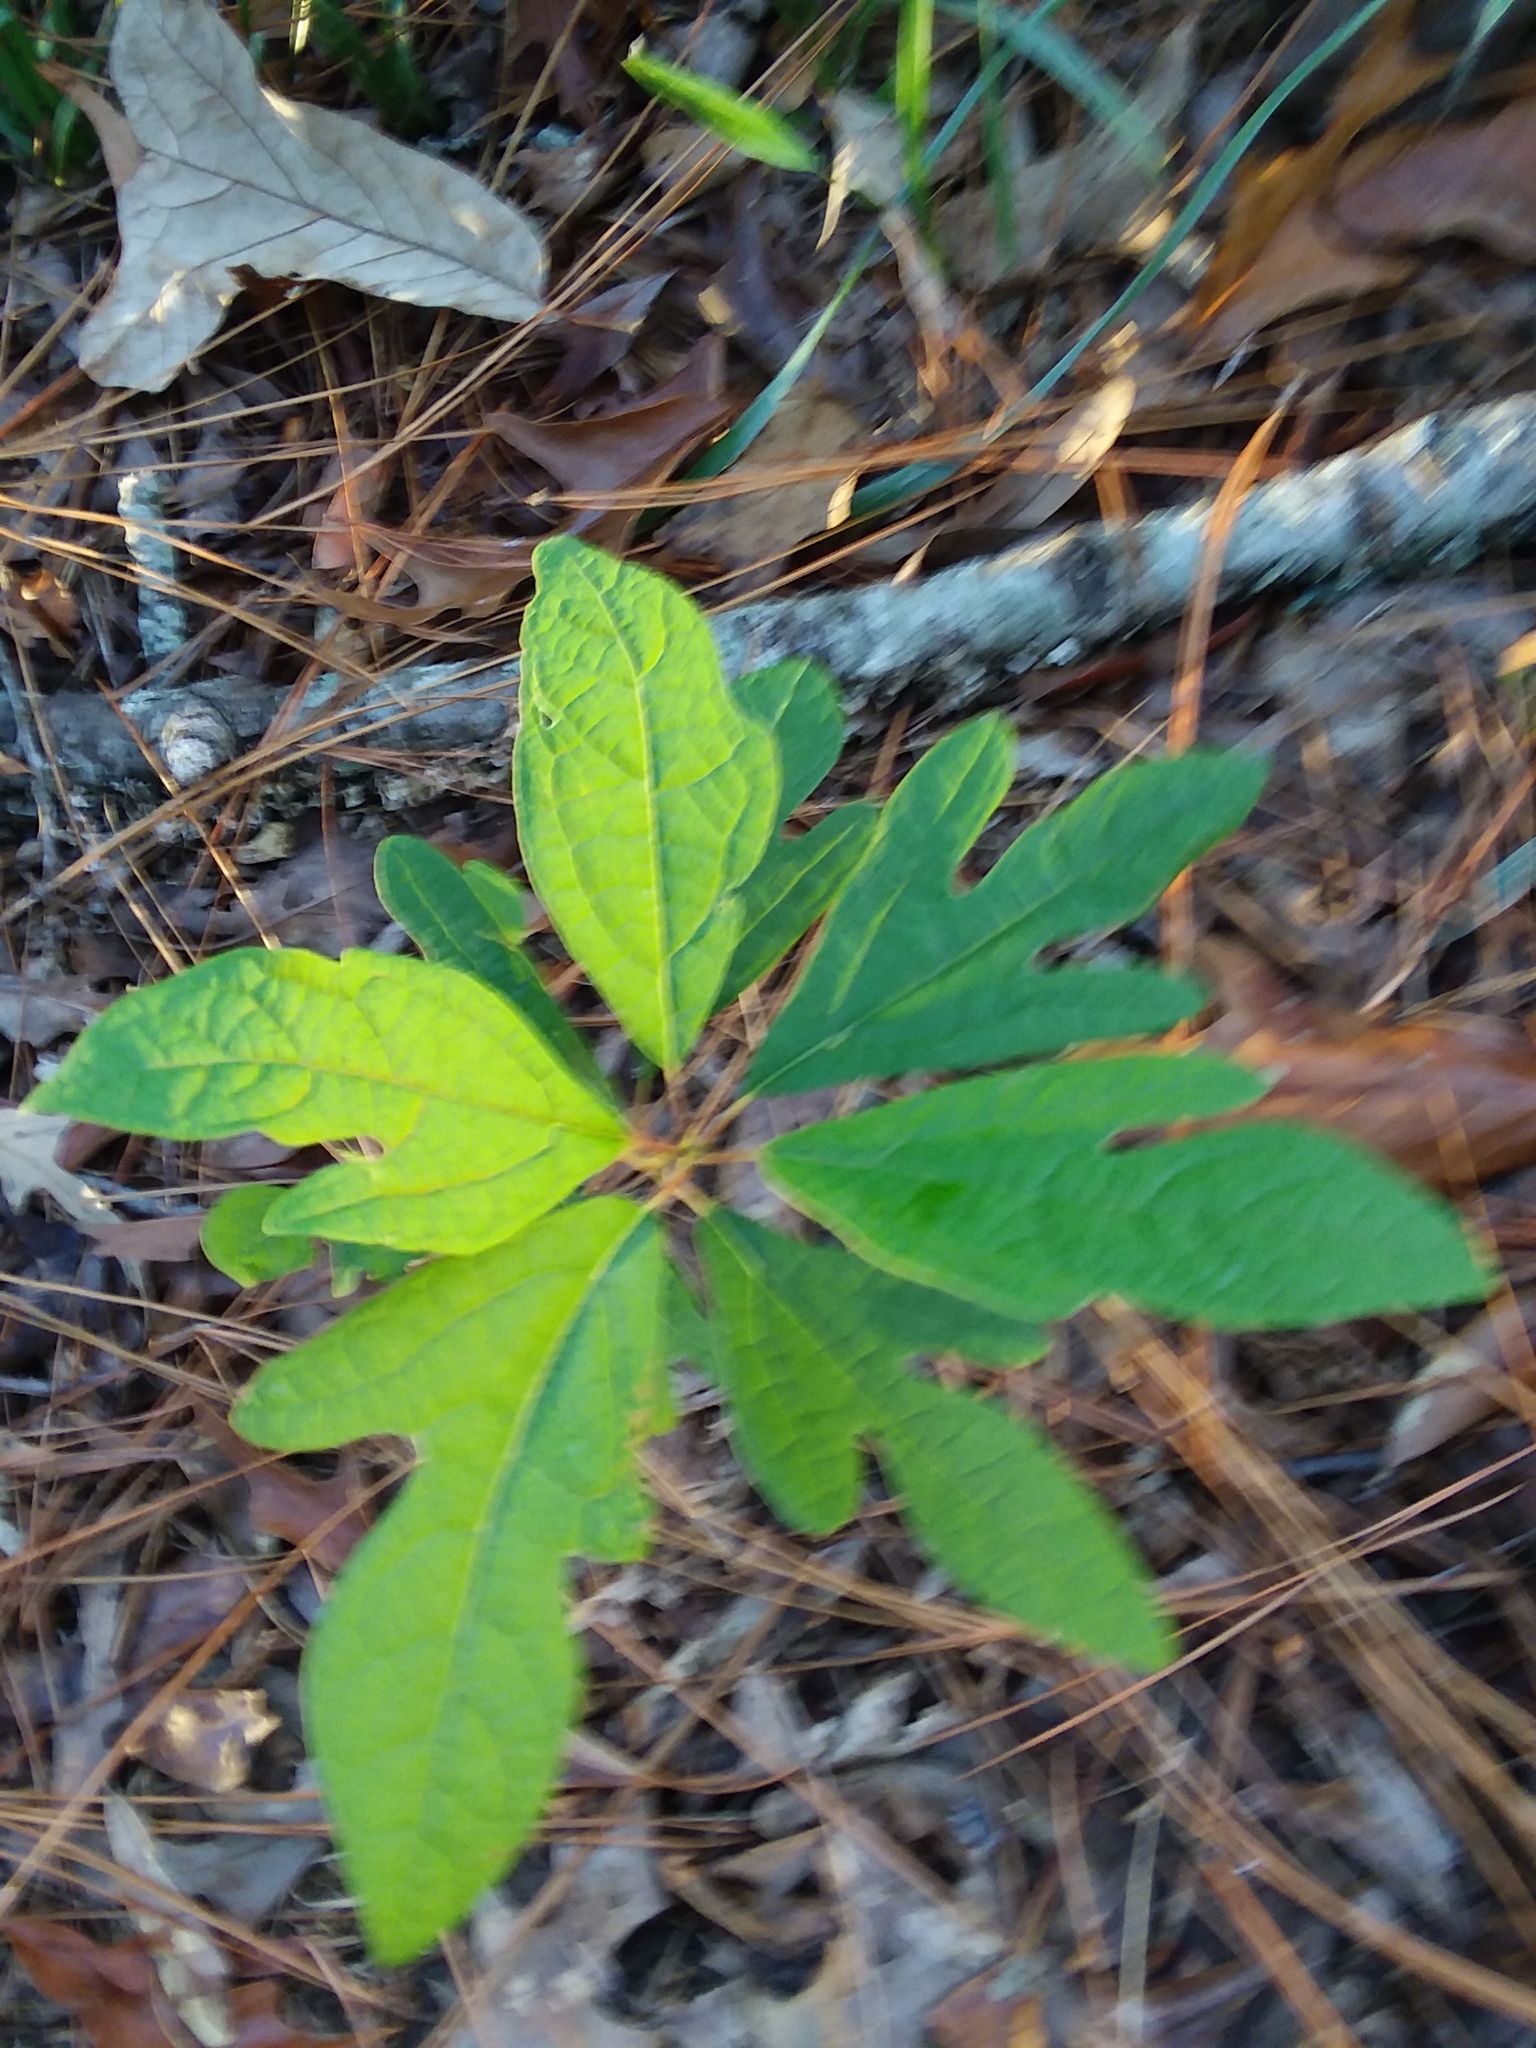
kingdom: Plantae
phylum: Tracheophyta
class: Magnoliopsida
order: Laurales
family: Lauraceae
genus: Sassafras
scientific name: Sassafras albidum
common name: Sassafras
